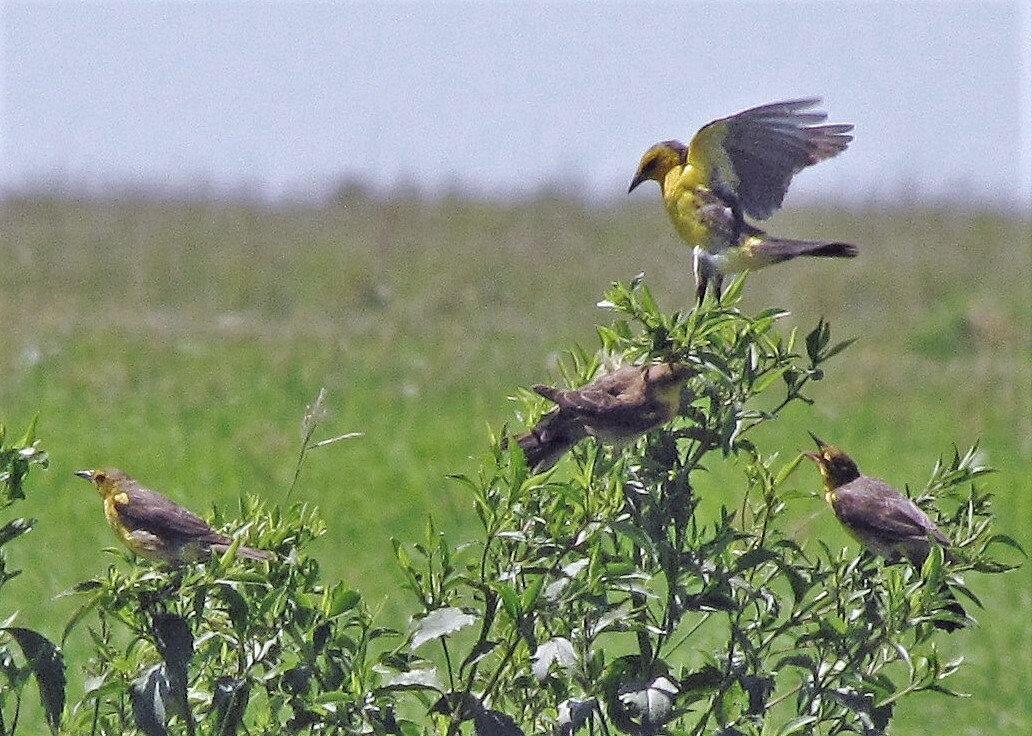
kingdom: Animalia
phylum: Chordata
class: Aves
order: Passeriformes
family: Icteridae
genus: Xanthopsar
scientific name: Xanthopsar flavus
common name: Saffron-cowled blackbird
